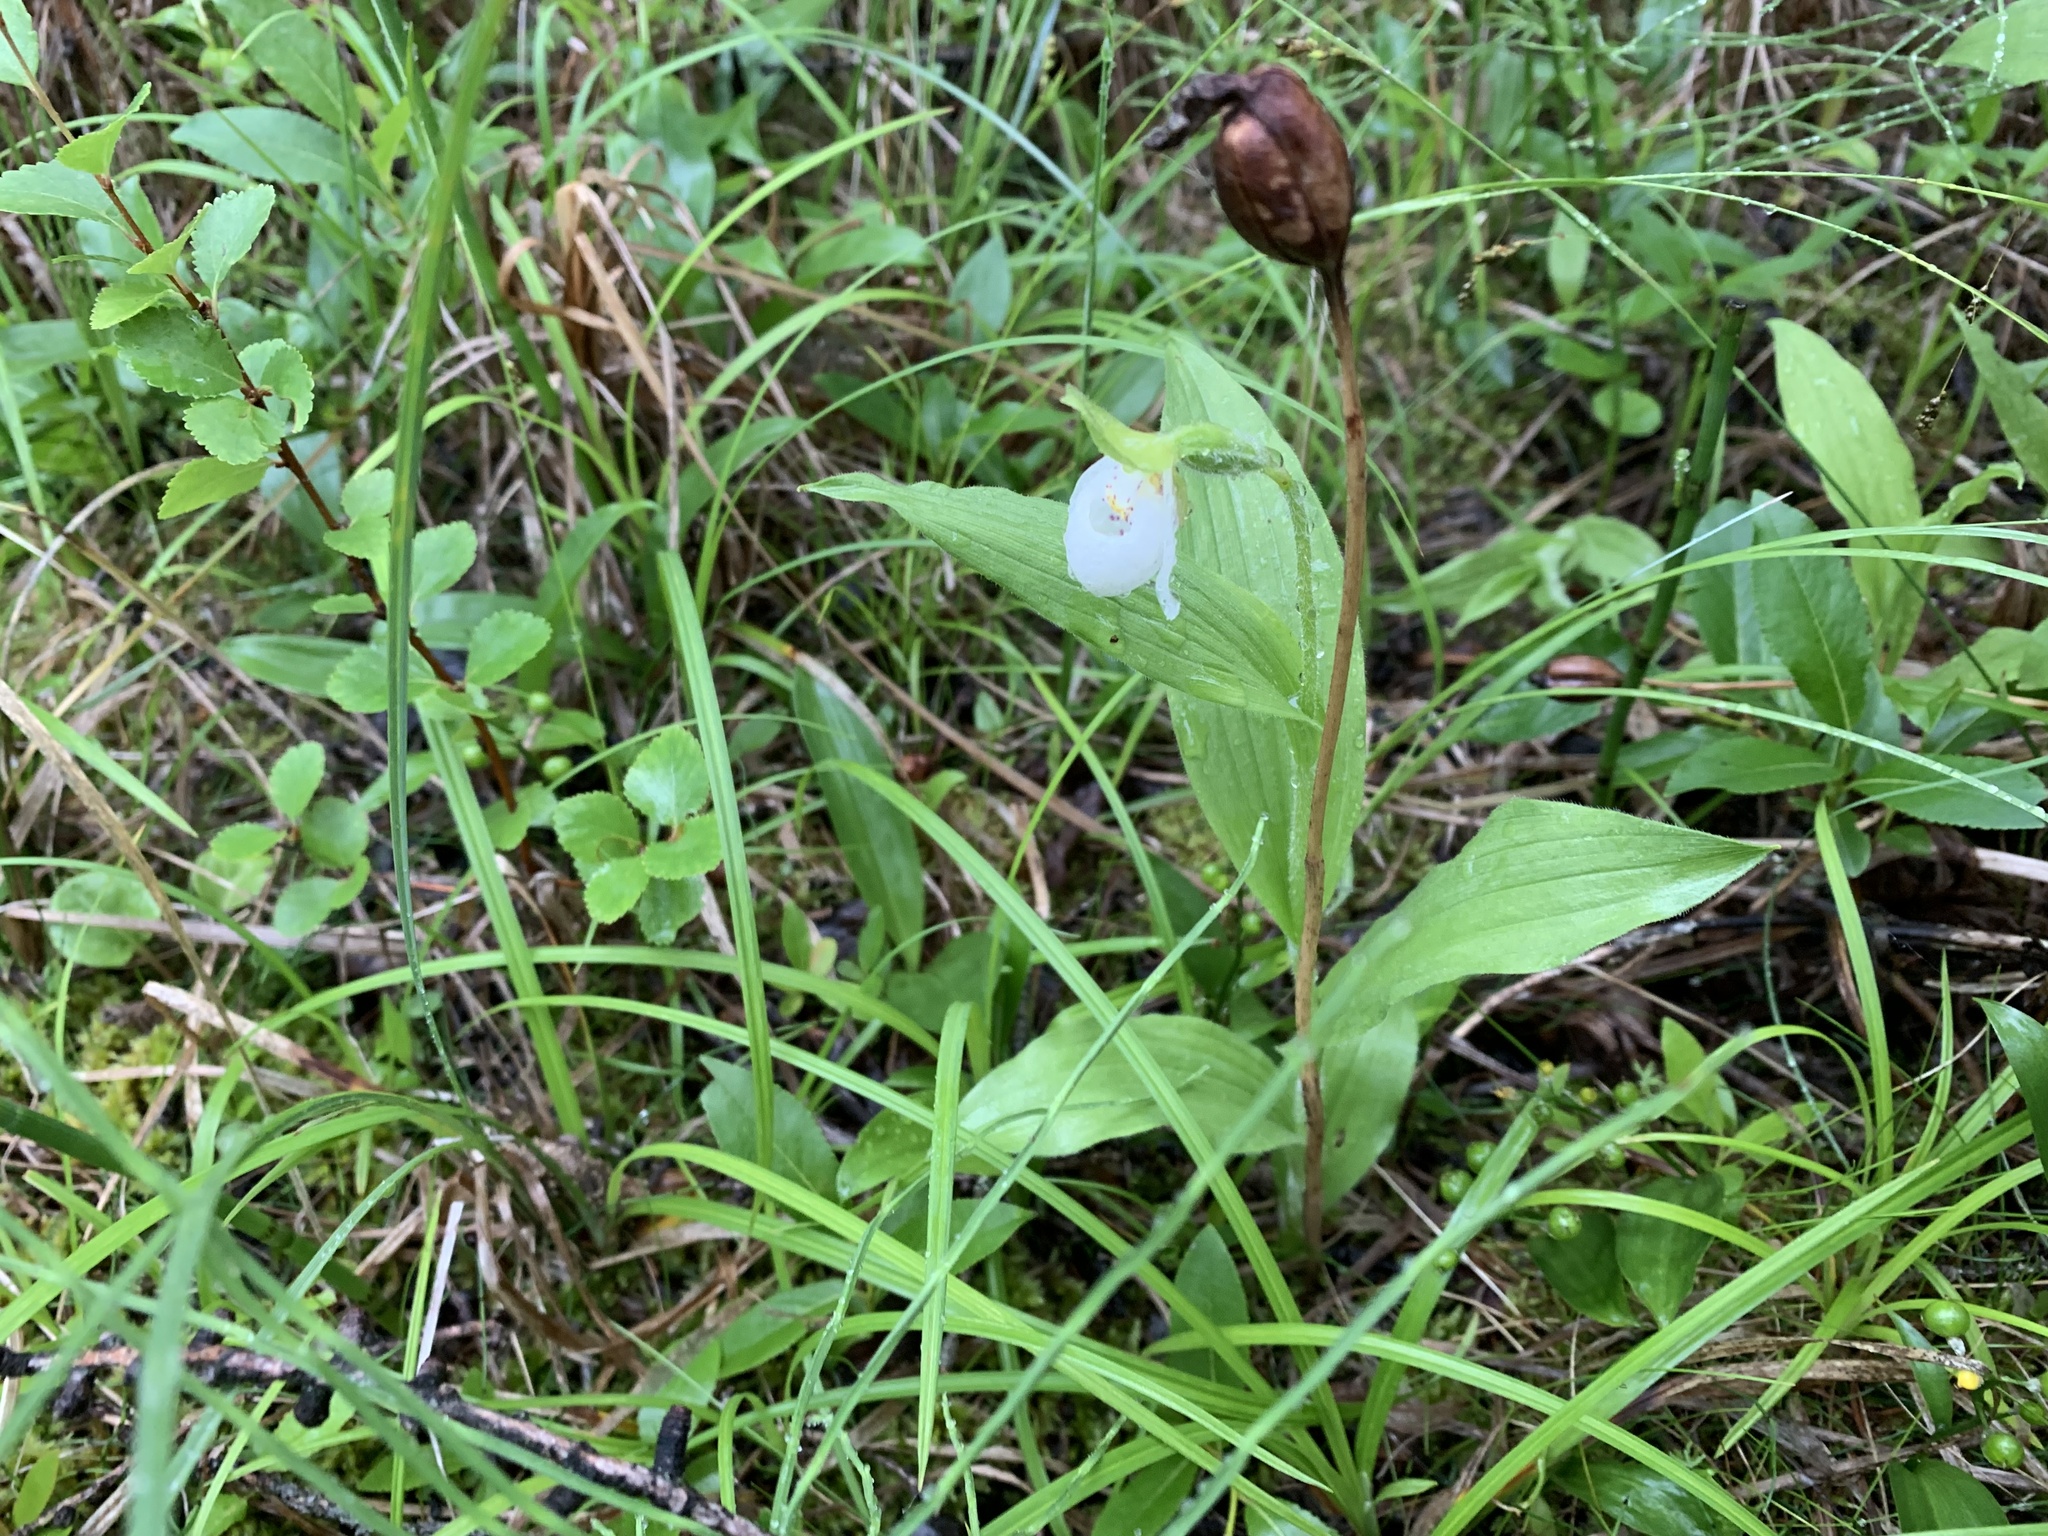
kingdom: Plantae
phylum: Tracheophyta
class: Liliopsida
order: Asparagales
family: Orchidaceae
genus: Cypripedium
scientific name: Cypripedium passerinum
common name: Sparrow's-egg lady's-slipper
